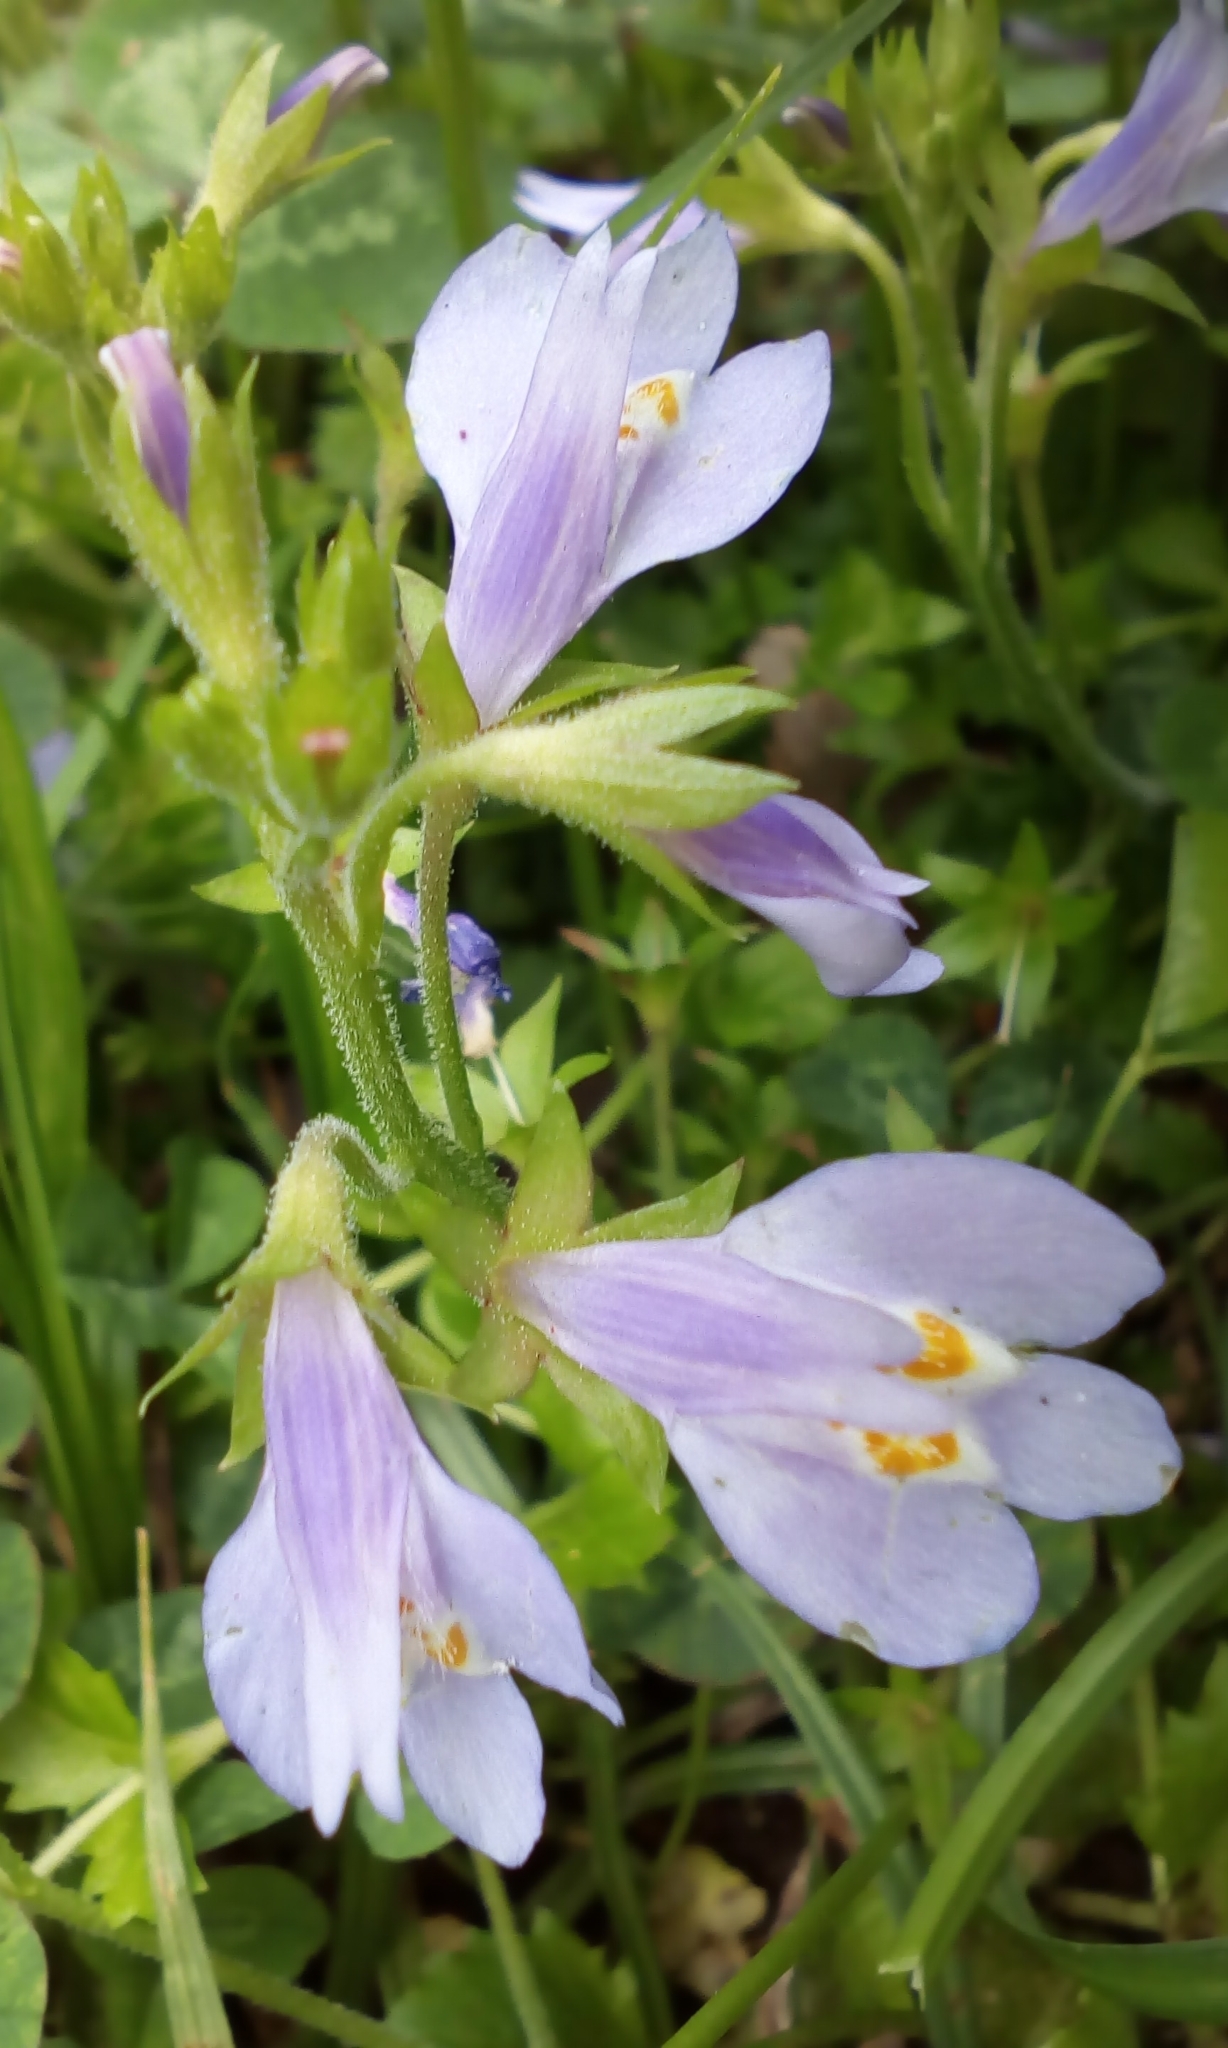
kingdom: Plantae
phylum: Tracheophyta
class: Magnoliopsida
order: Lamiales
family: Mazaceae
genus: Mazus
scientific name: Mazus miquelii
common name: Miquel's mazus
